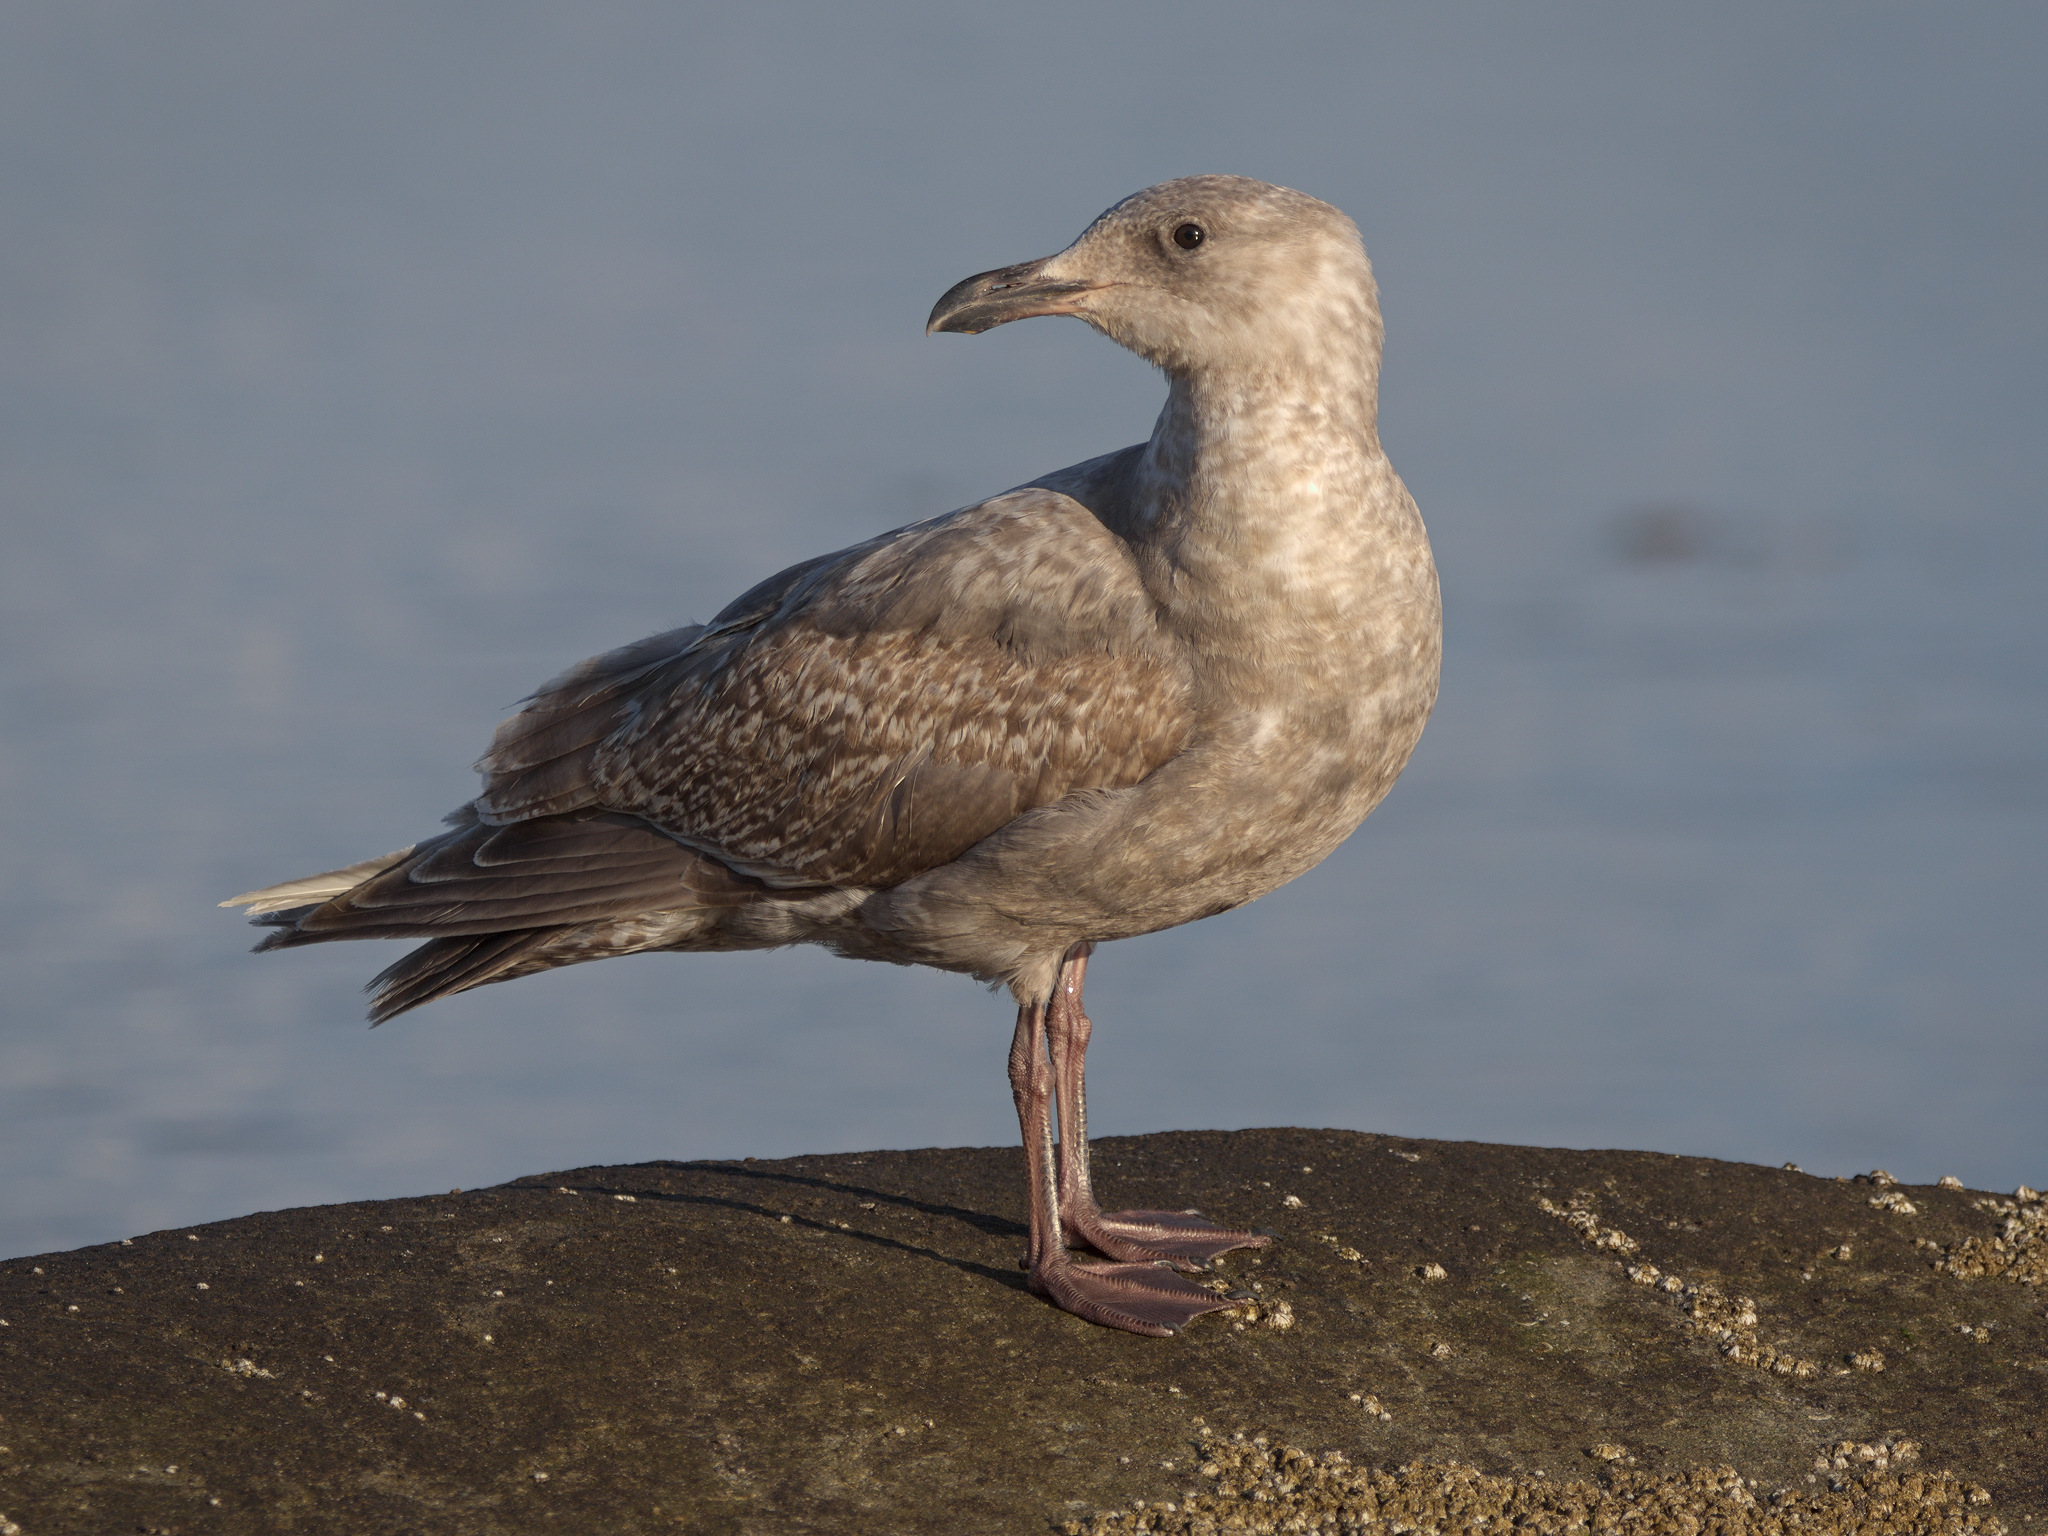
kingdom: Animalia
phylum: Chordata
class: Aves
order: Charadriiformes
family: Laridae
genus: Larus
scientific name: Larus
